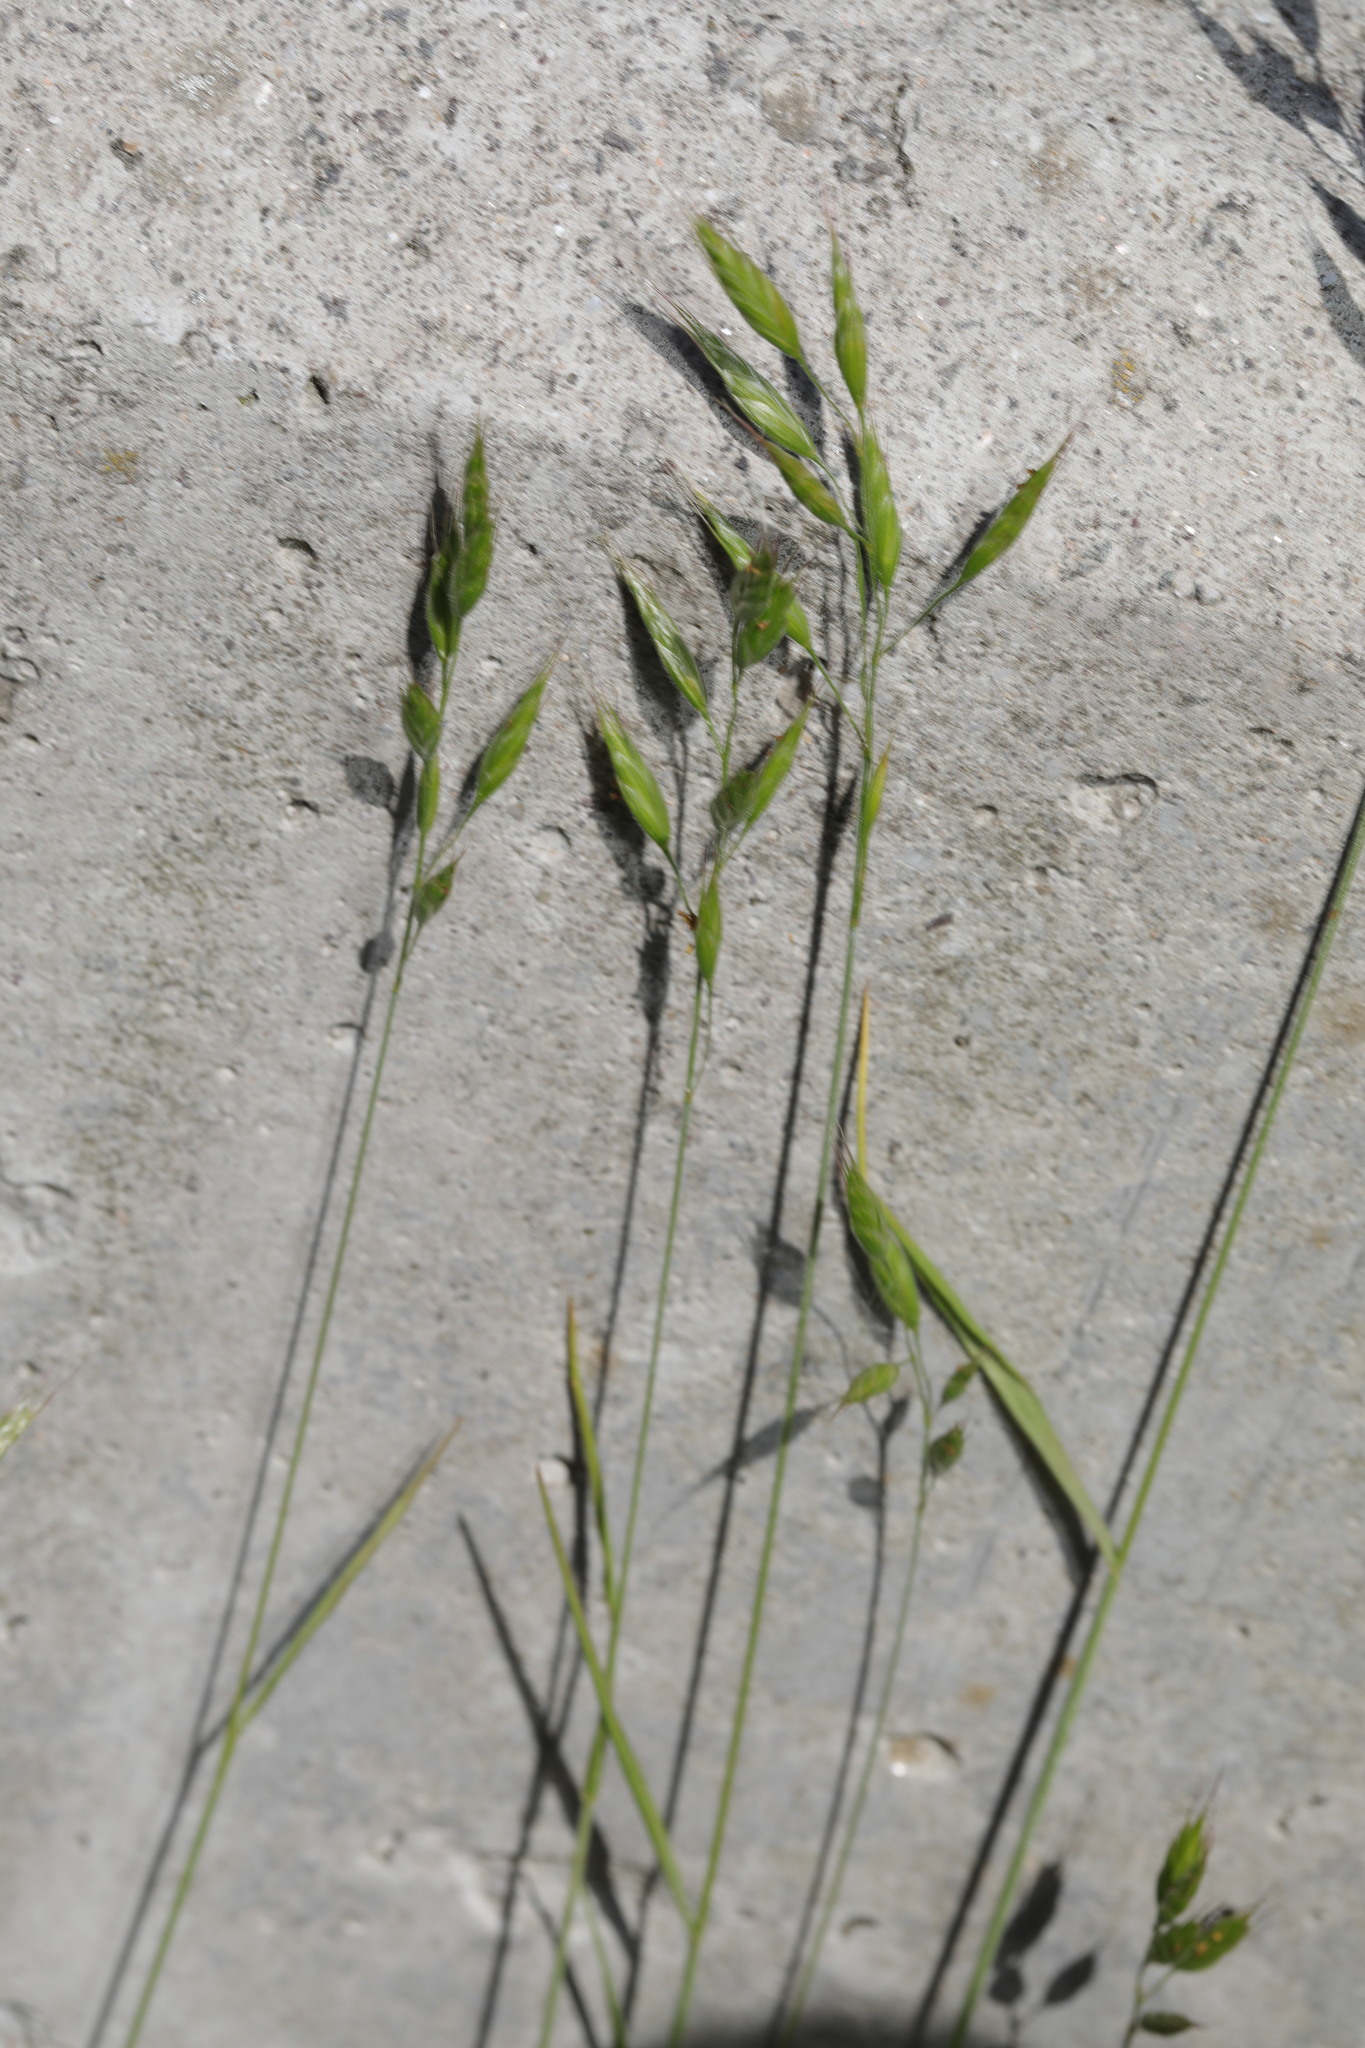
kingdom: Plantae
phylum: Tracheophyta
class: Liliopsida
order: Poales
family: Poaceae
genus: Bromus
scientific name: Bromus hordeaceus
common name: Soft brome
